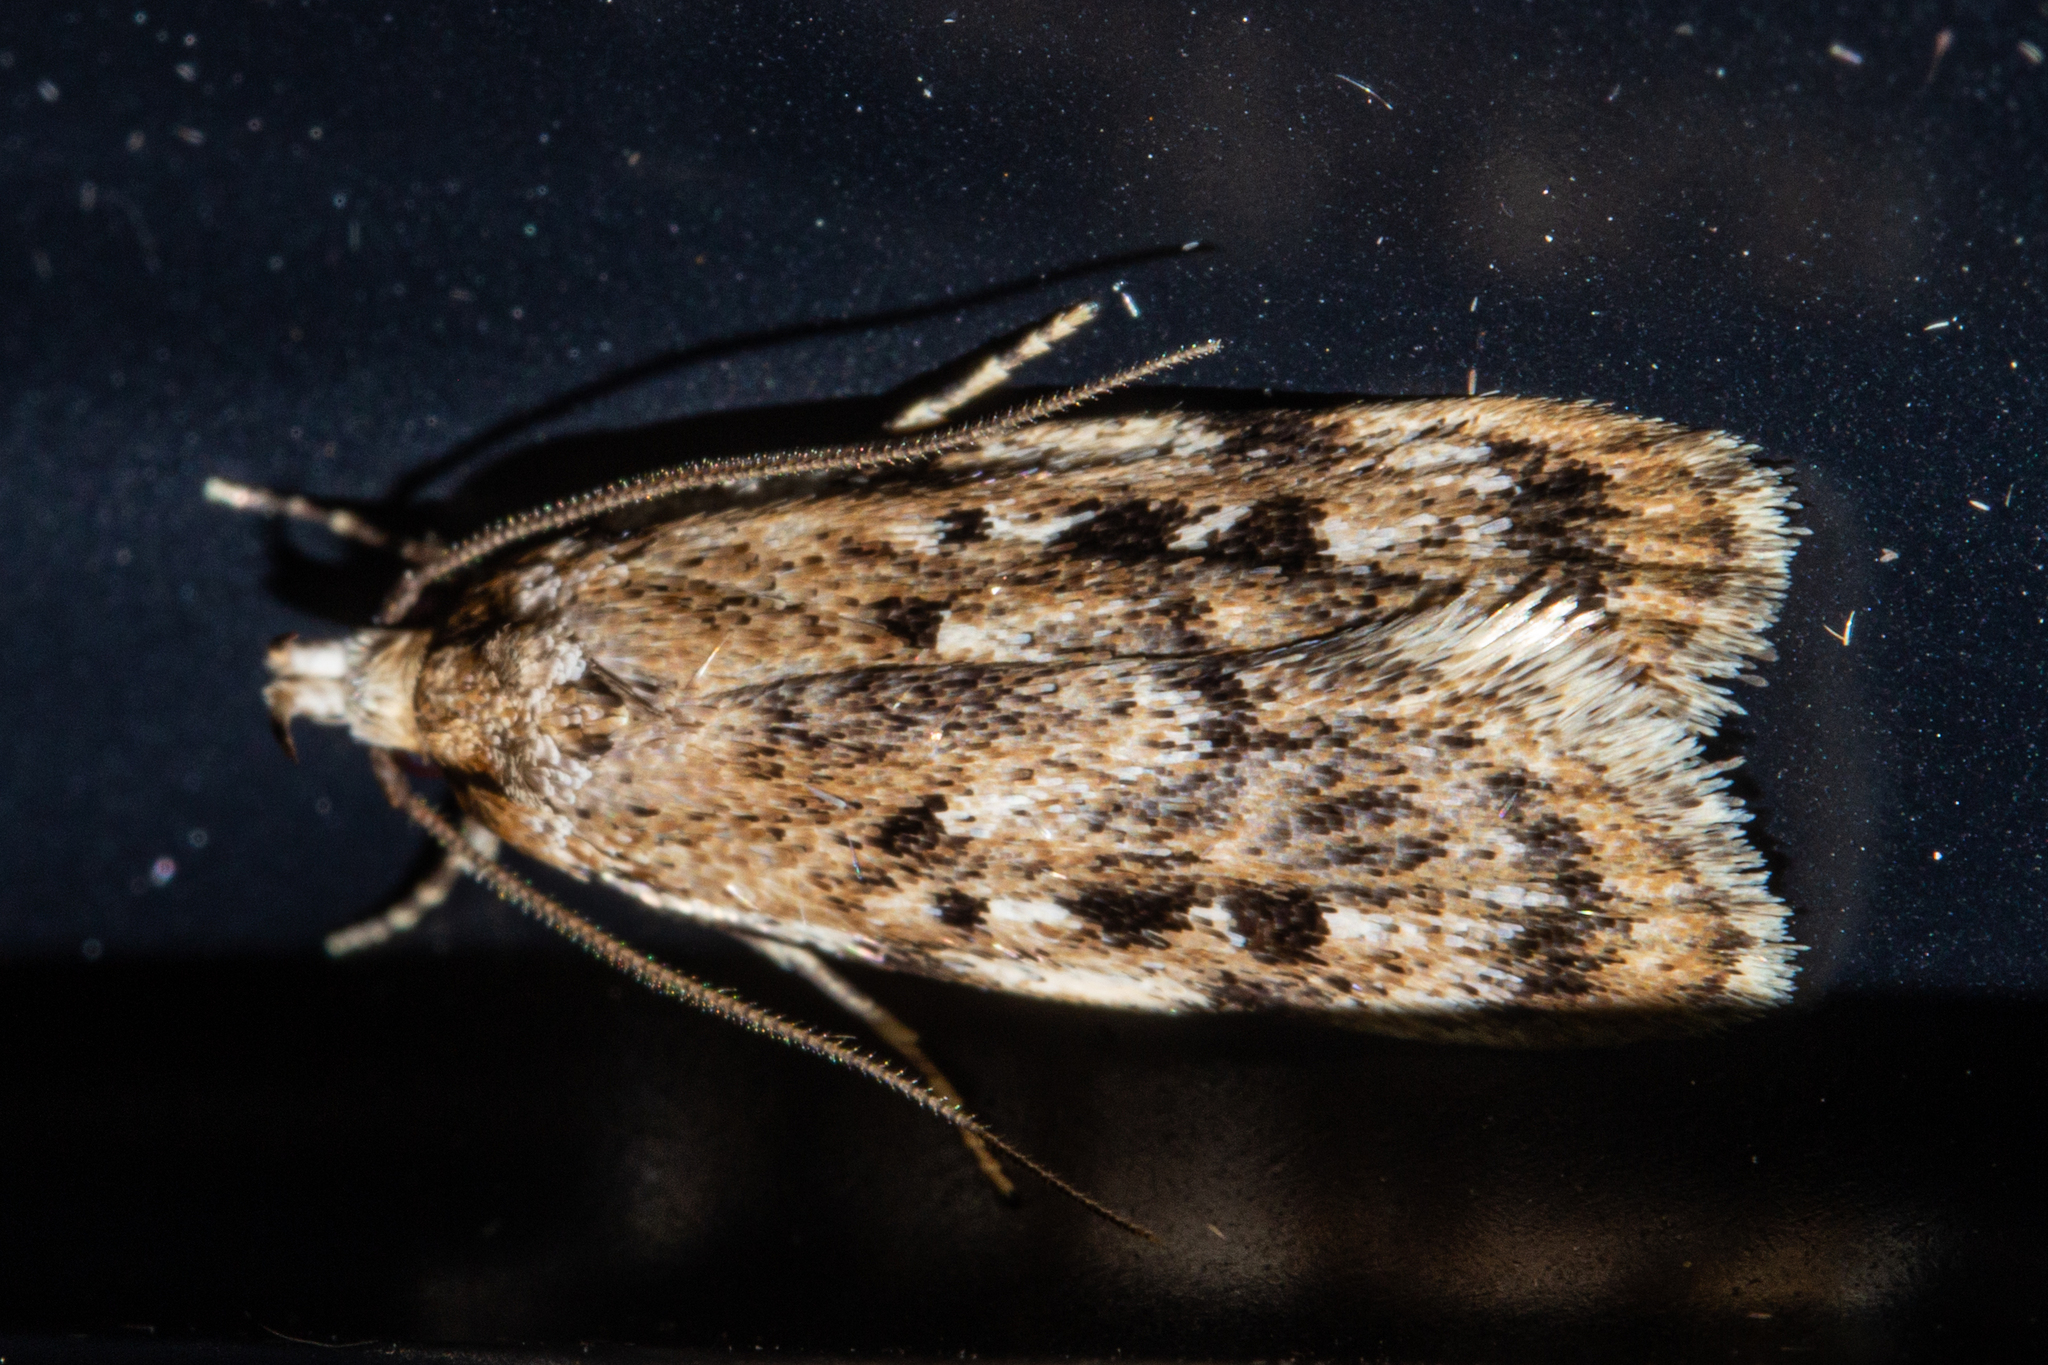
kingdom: Animalia
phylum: Arthropoda
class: Insecta
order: Lepidoptera
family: Oecophoridae
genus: Barea
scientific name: Barea exarcha
